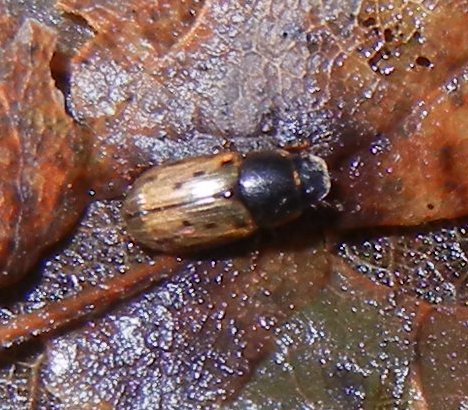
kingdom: Animalia
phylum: Arthropoda
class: Insecta
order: Coleoptera
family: Scarabaeidae
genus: Chilothorax
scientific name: Chilothorax conspurcatus
